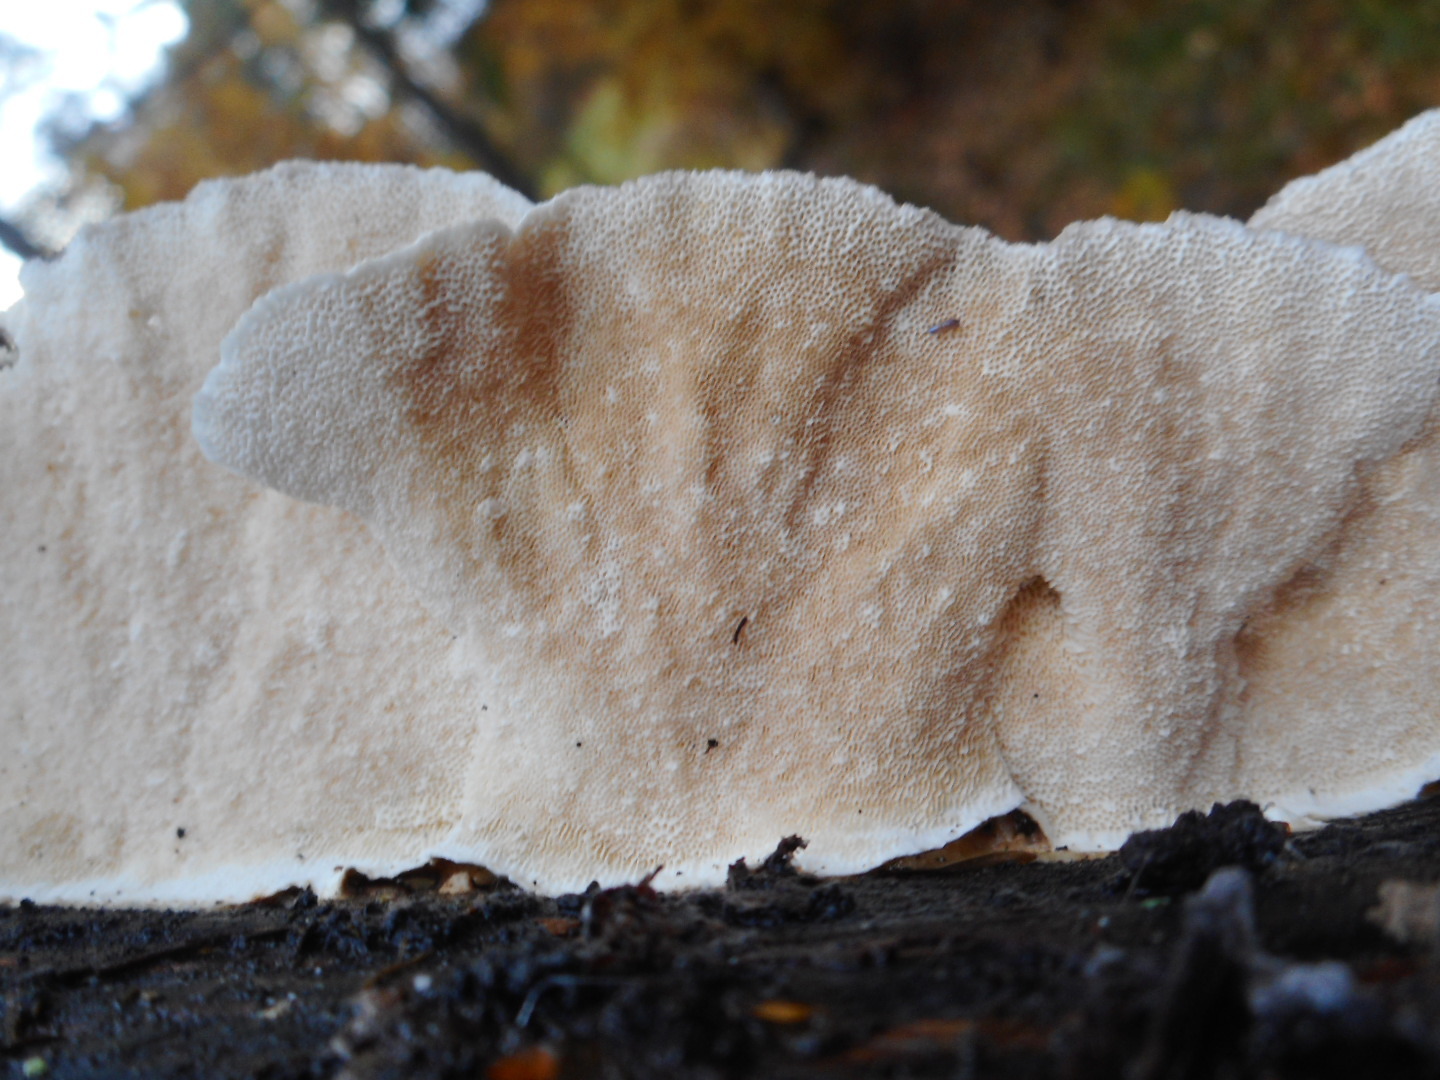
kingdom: Fungi
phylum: Basidiomycota
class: Agaricomycetes
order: Polyporales
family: Polyporaceae
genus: Trametes
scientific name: Trametes versicolor
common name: Turkeytail
